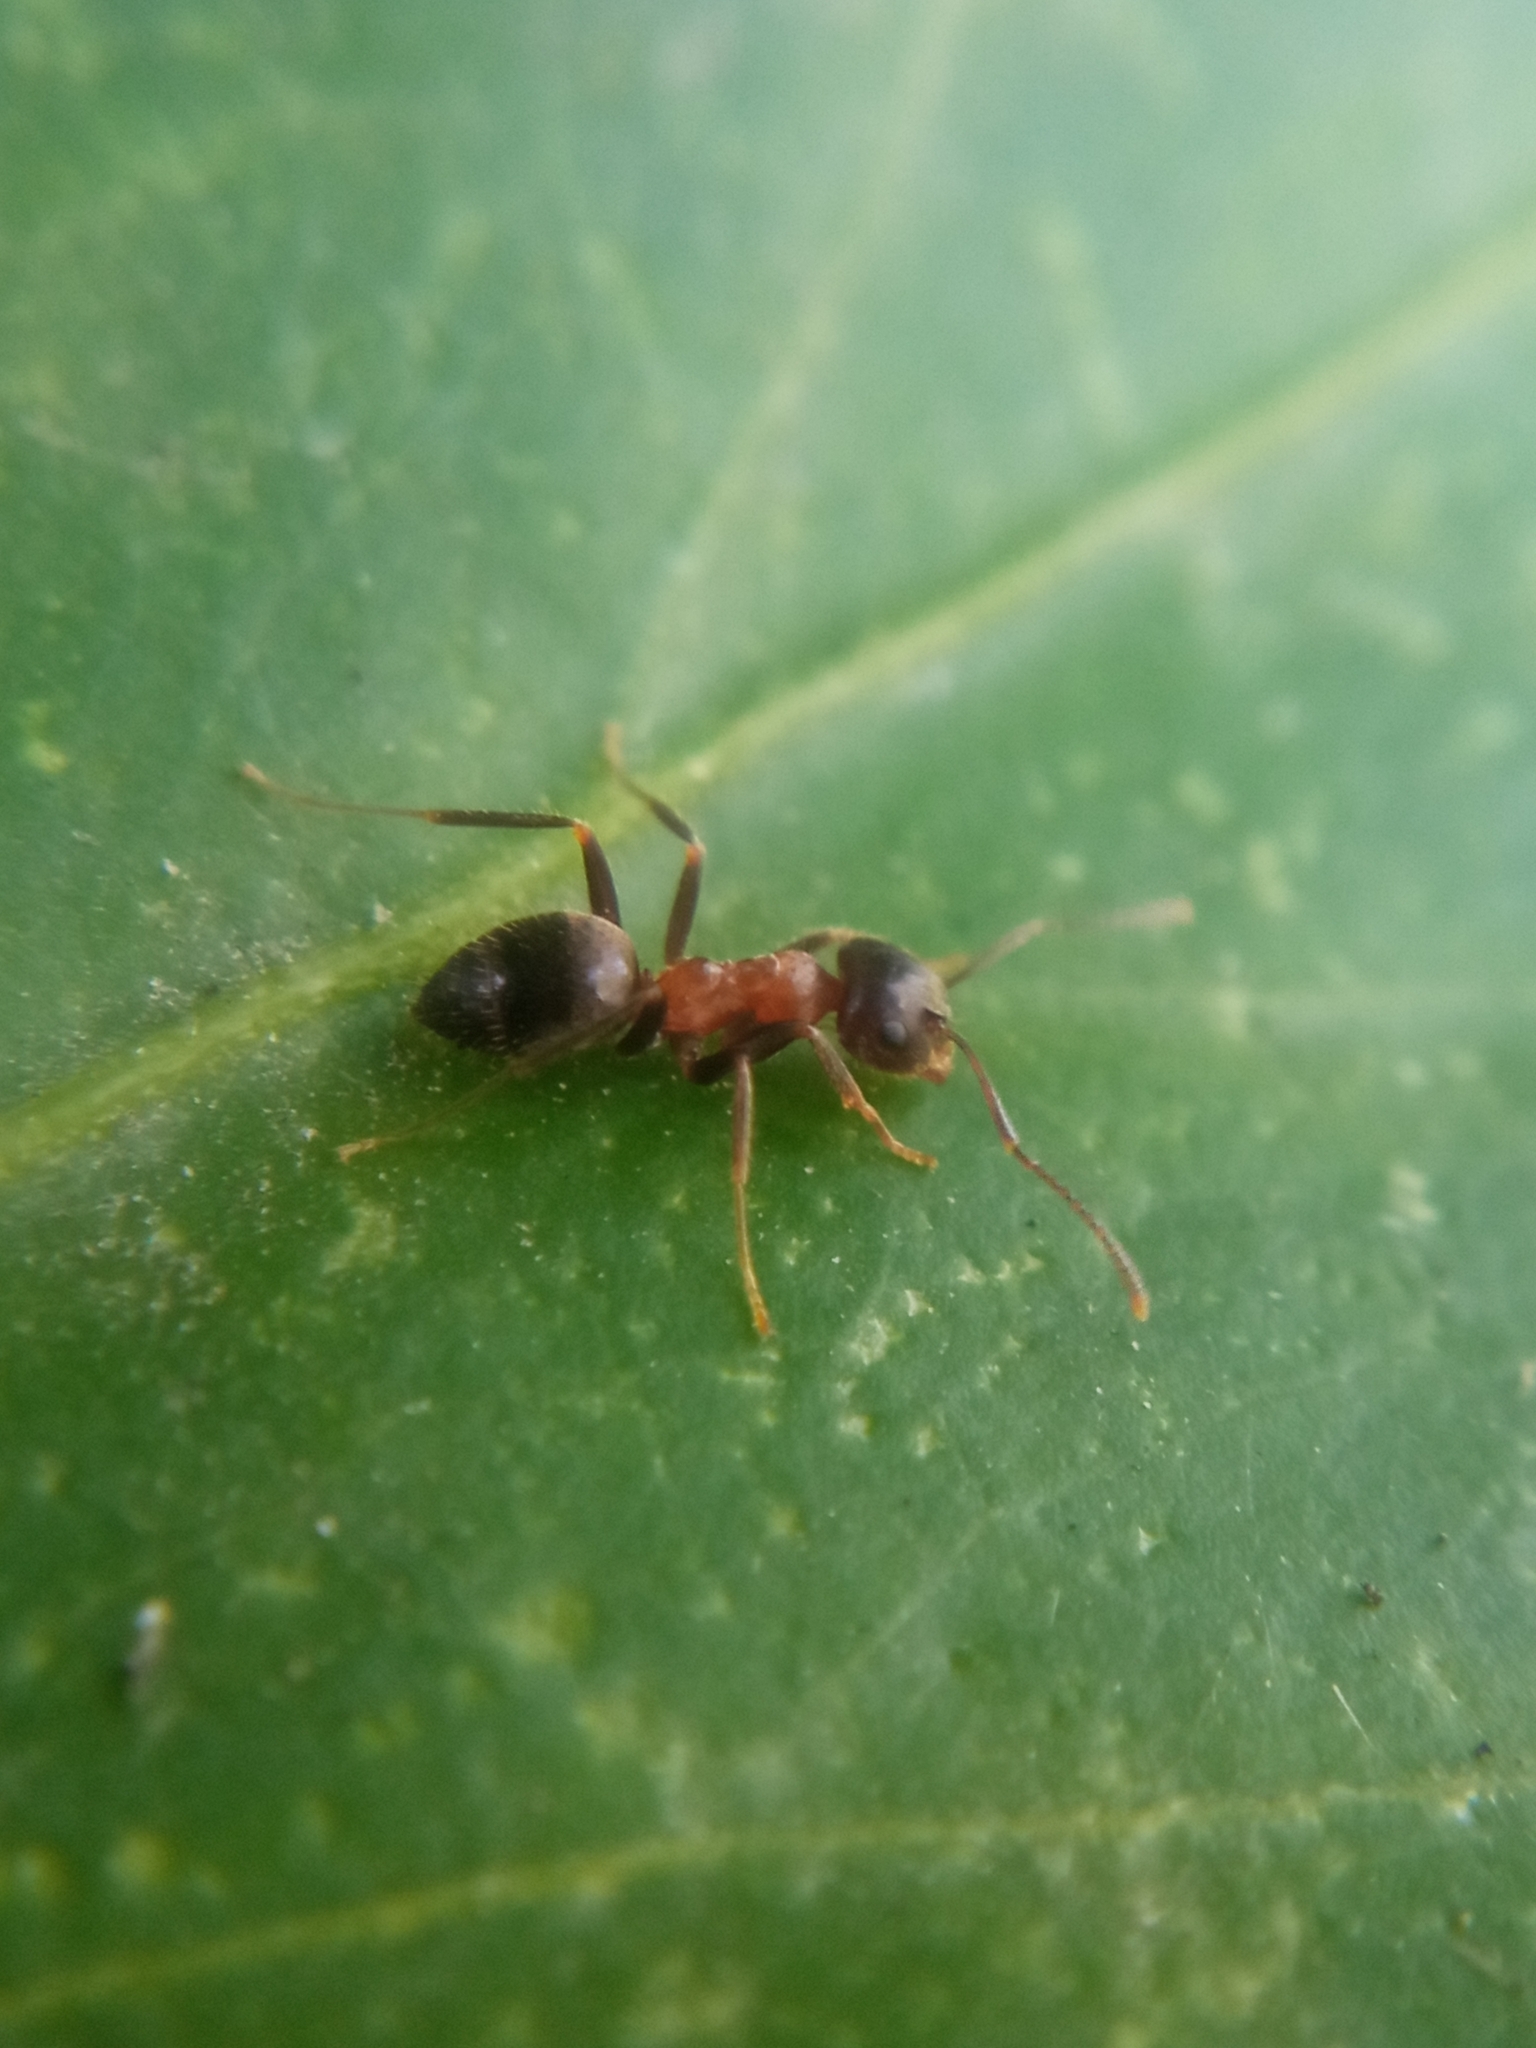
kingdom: Animalia
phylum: Arthropoda
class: Insecta
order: Hymenoptera
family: Formicidae
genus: Lasius
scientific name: Lasius emarginatus
